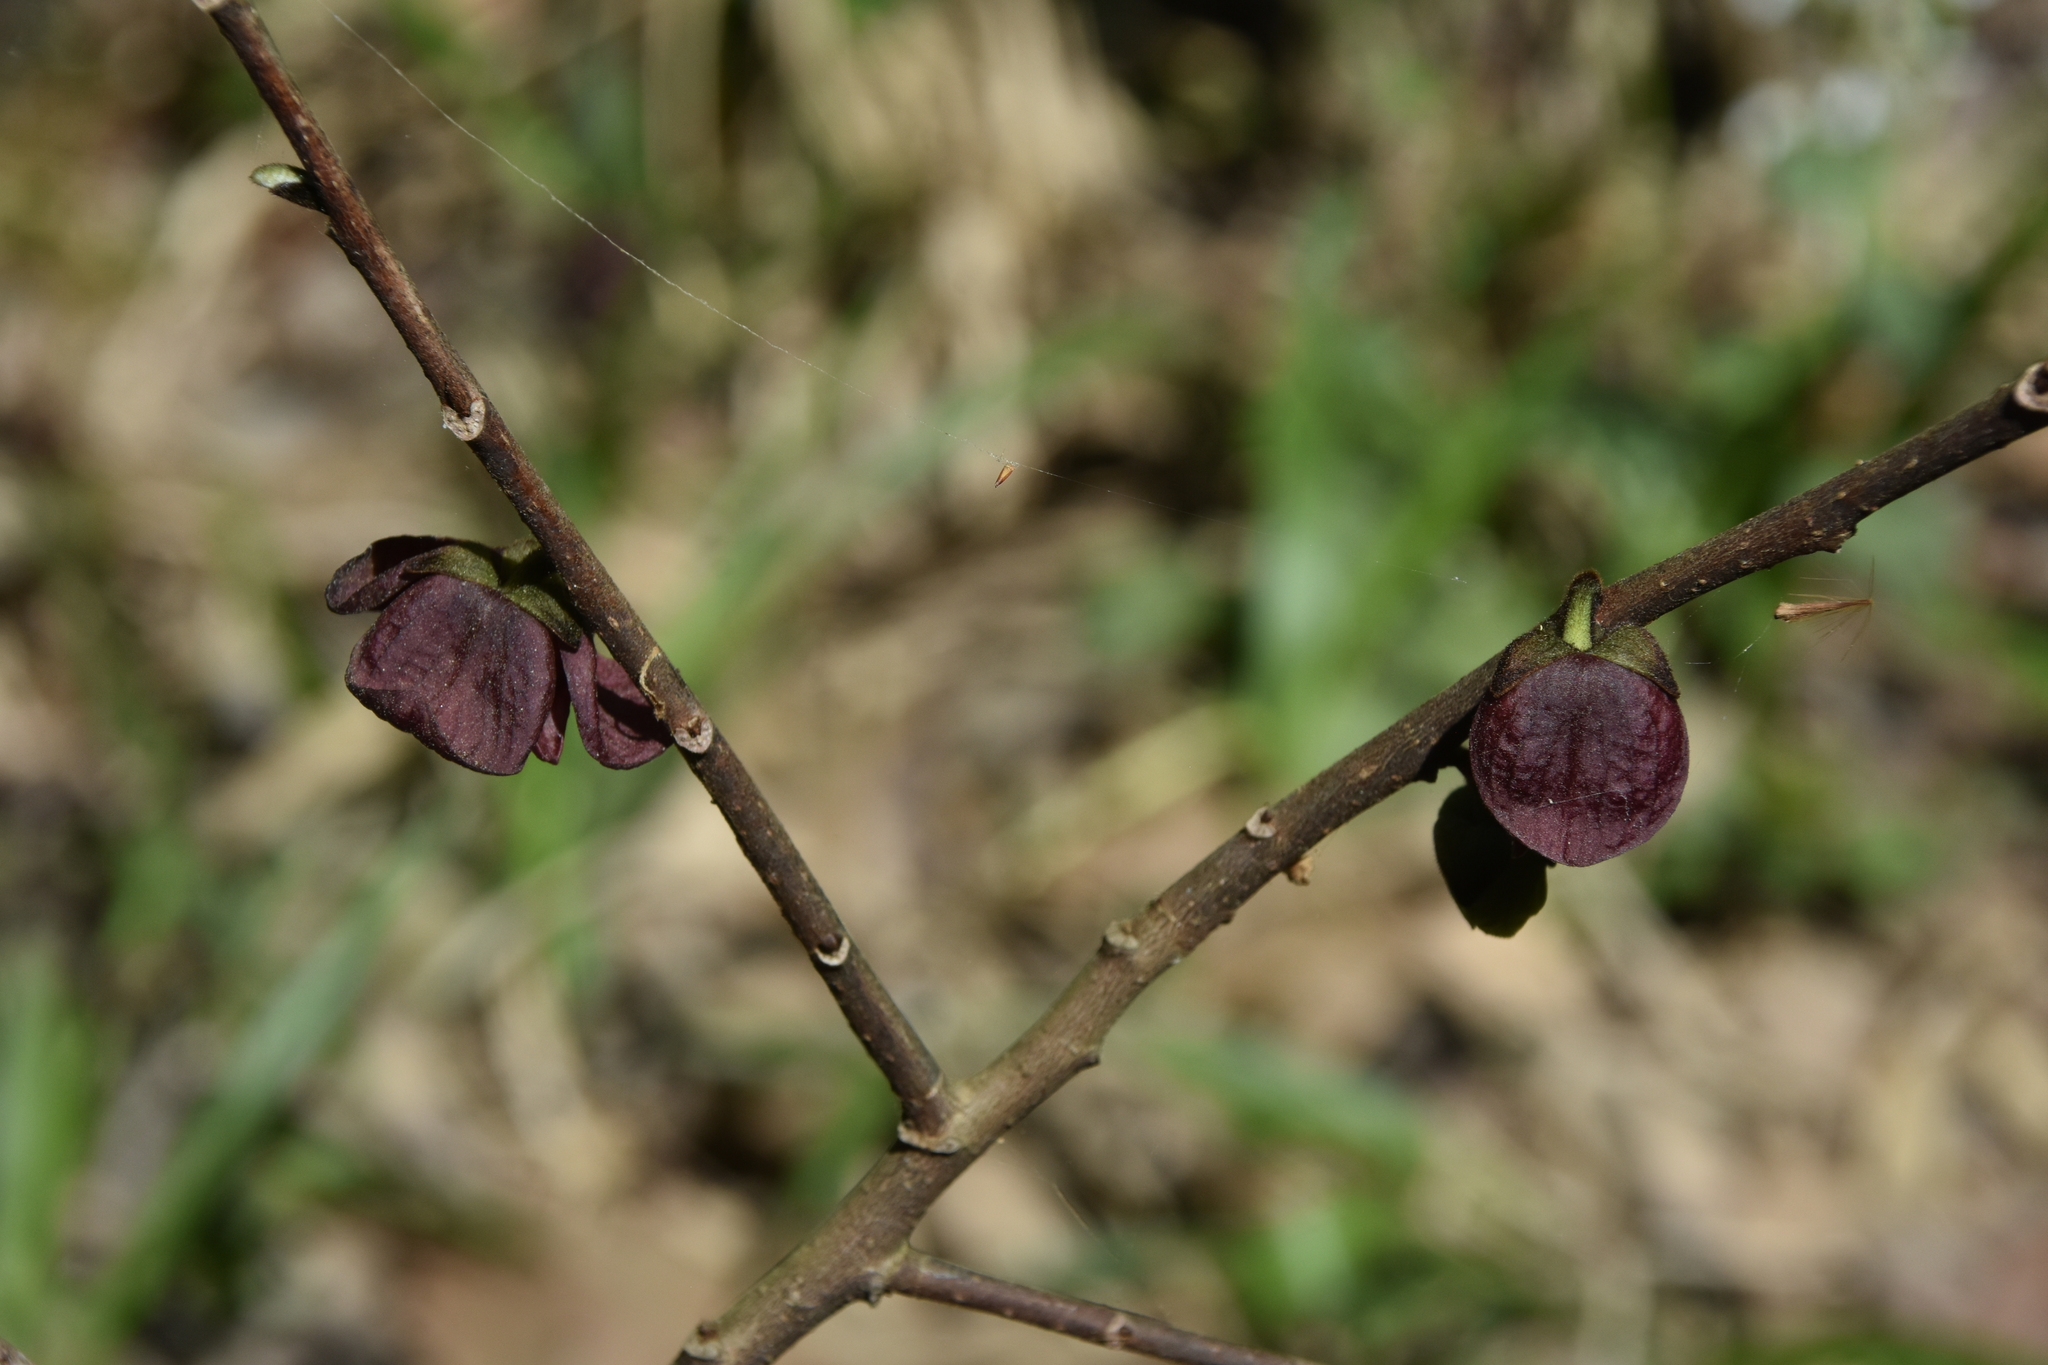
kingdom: Plantae
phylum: Tracheophyta
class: Magnoliopsida
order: Magnoliales
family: Annonaceae
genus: Asimina
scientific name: Asimina triloba
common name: Dog-banana
